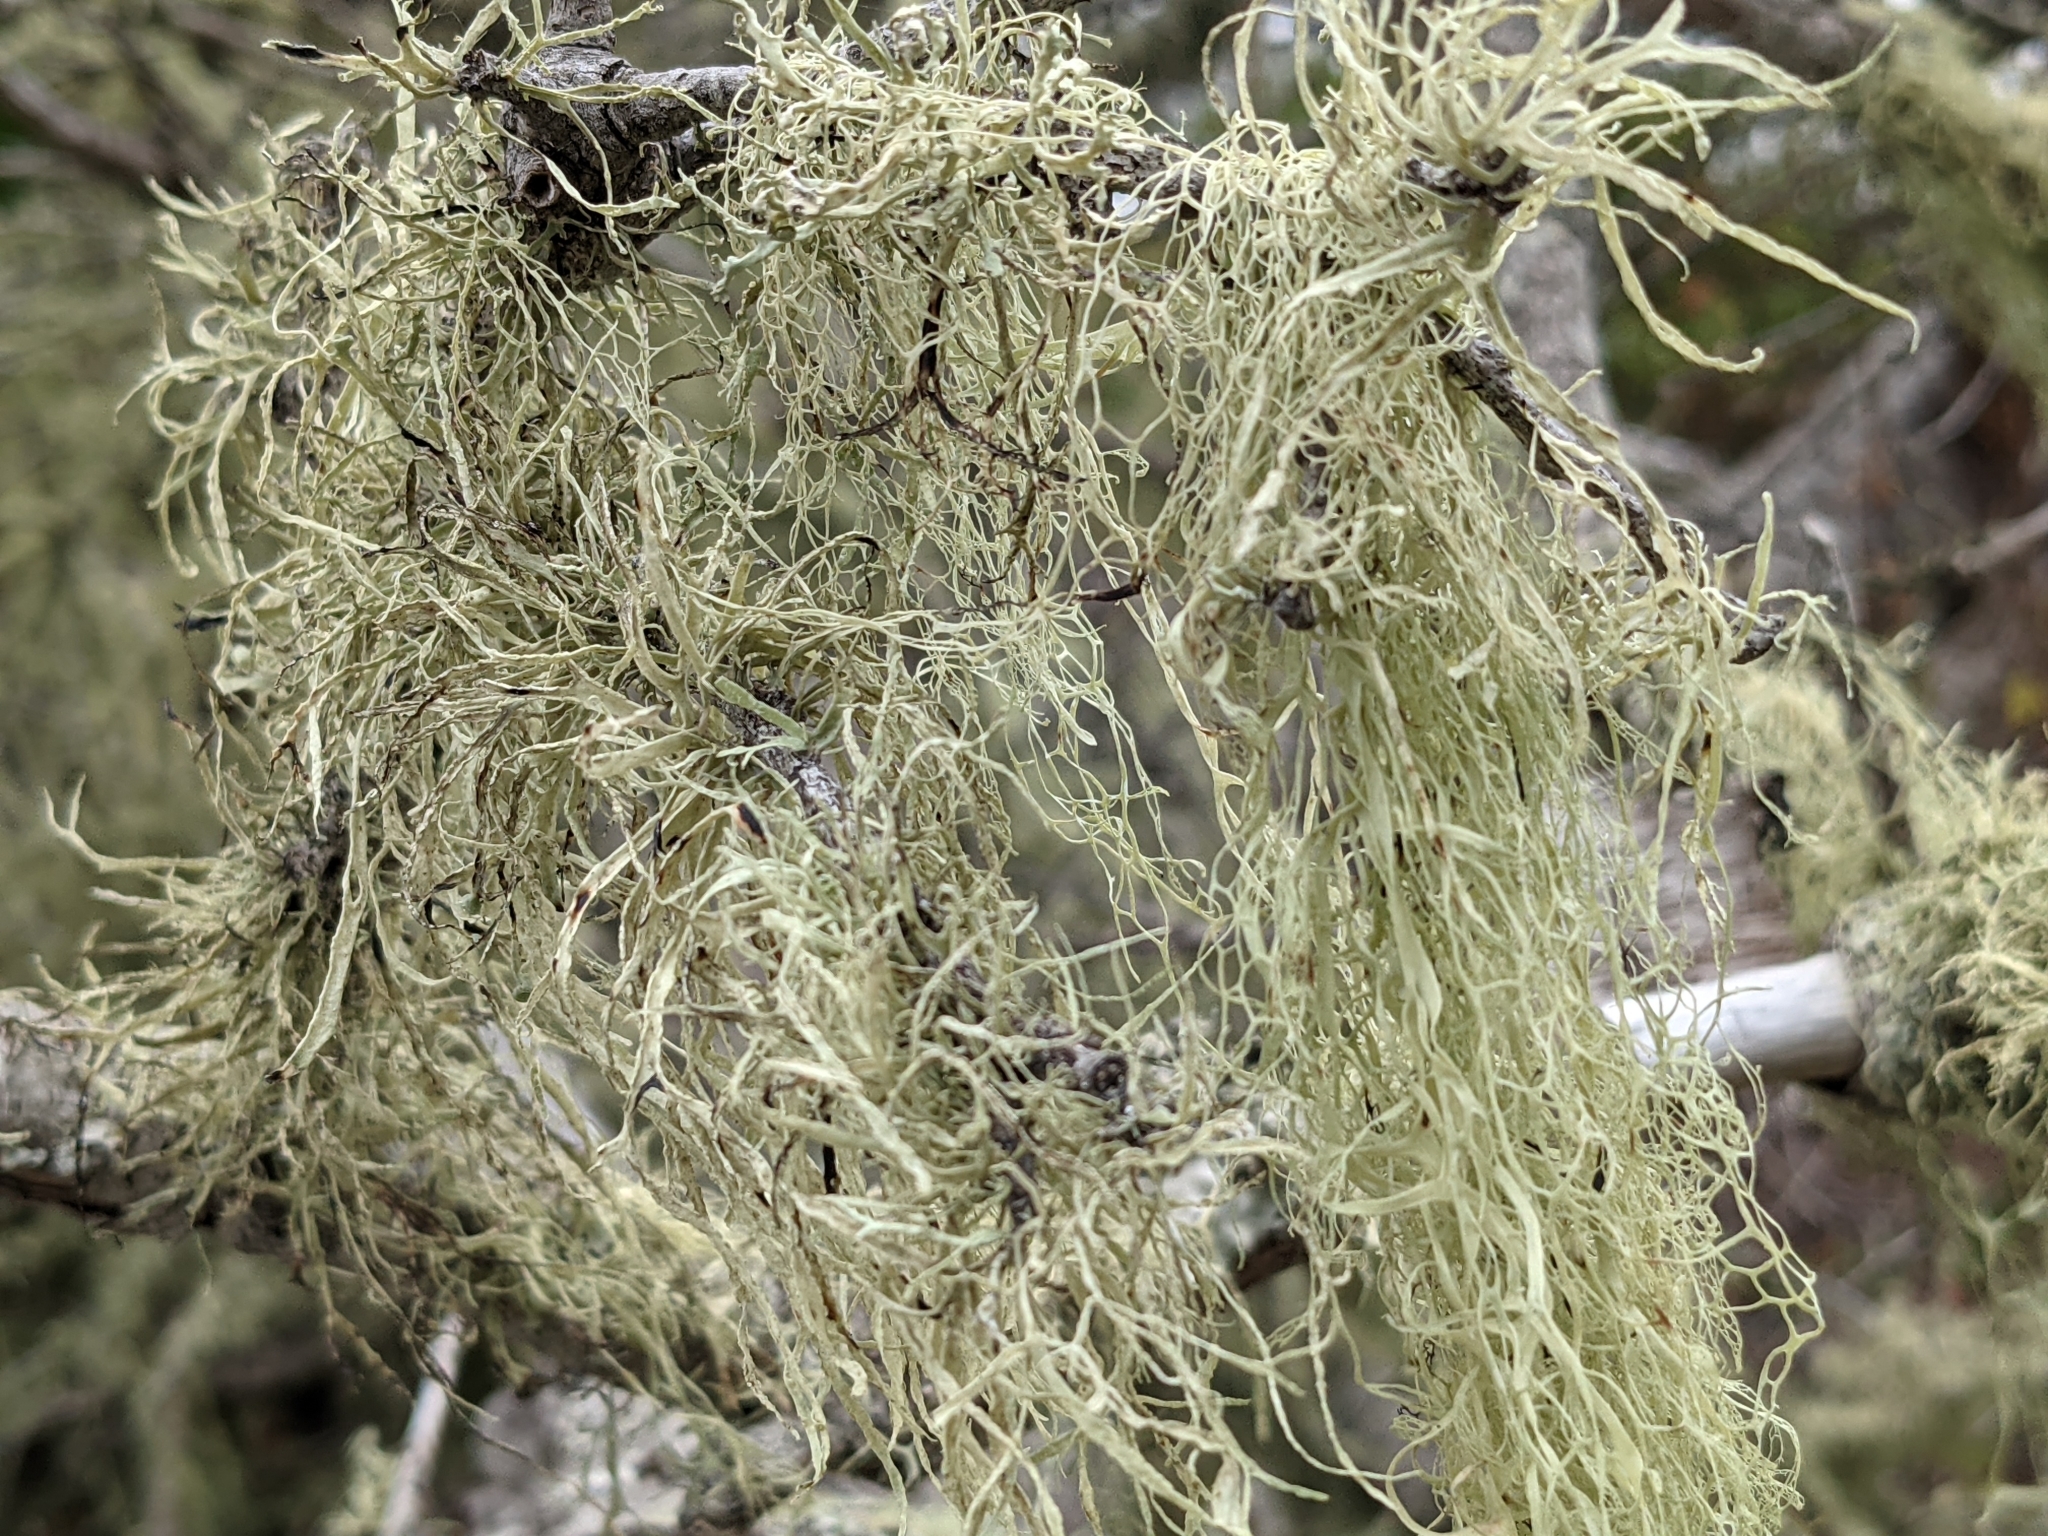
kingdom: Fungi
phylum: Ascomycota
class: Lecanoromycetes
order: Lecanorales
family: Ramalinaceae
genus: Ramalina
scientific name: Ramalina menziesii
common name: Lace lichen
